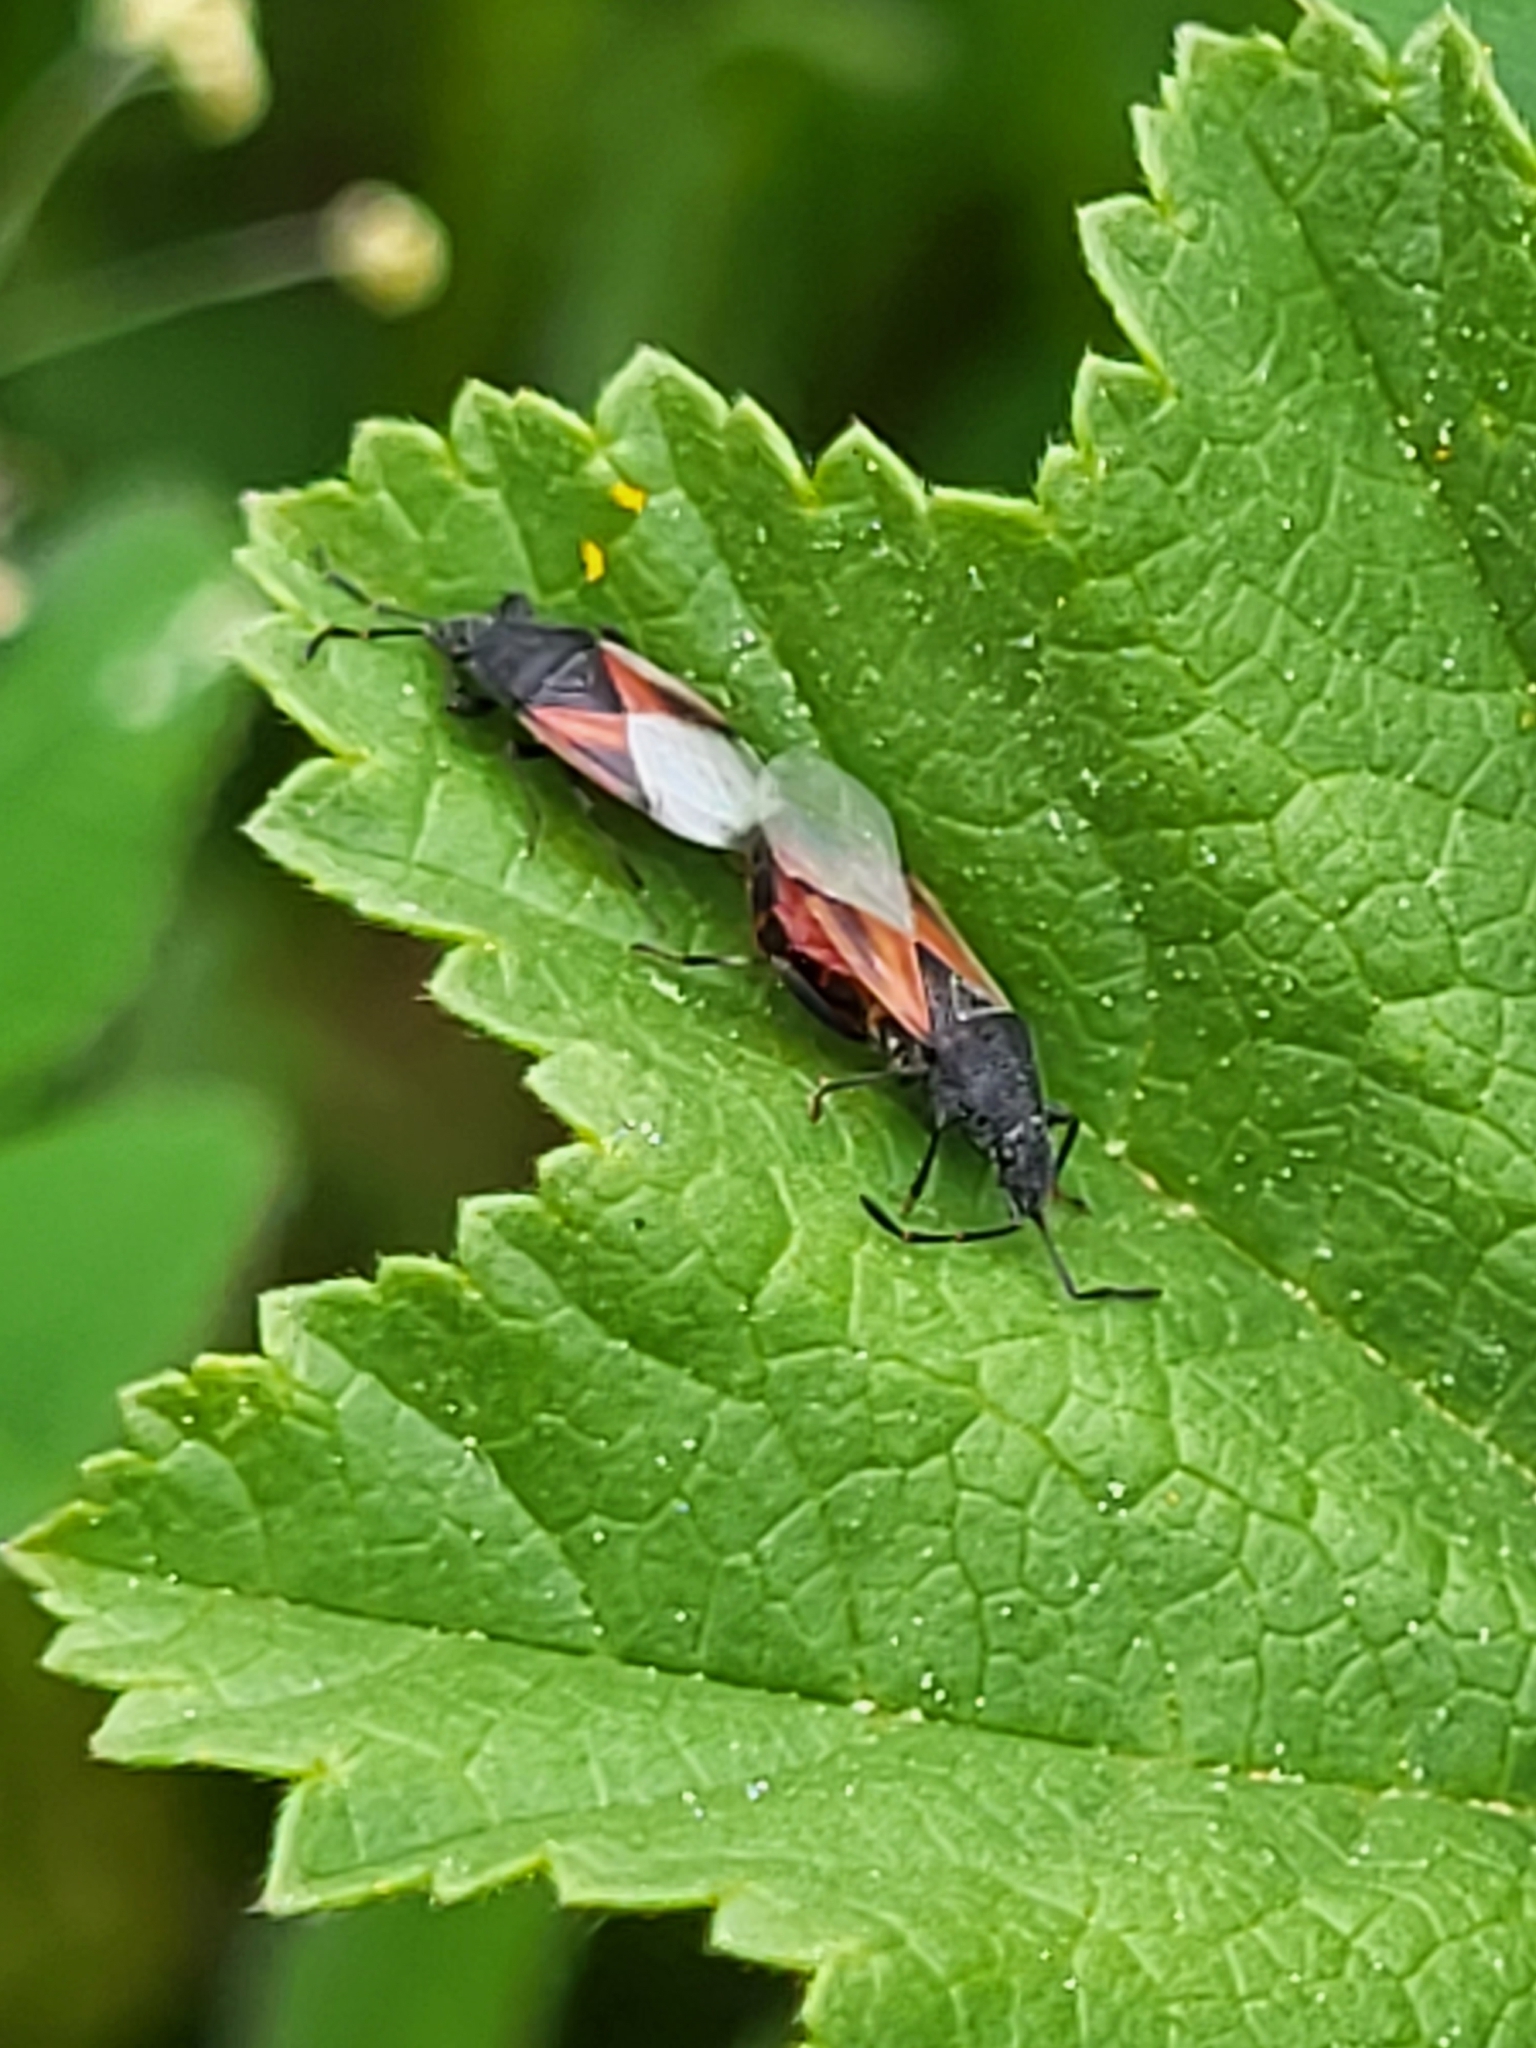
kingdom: Animalia
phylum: Arthropoda
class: Insecta
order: Hemiptera
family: Oxycarenidae
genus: Oxycarenus
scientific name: Oxycarenus lavaterae
